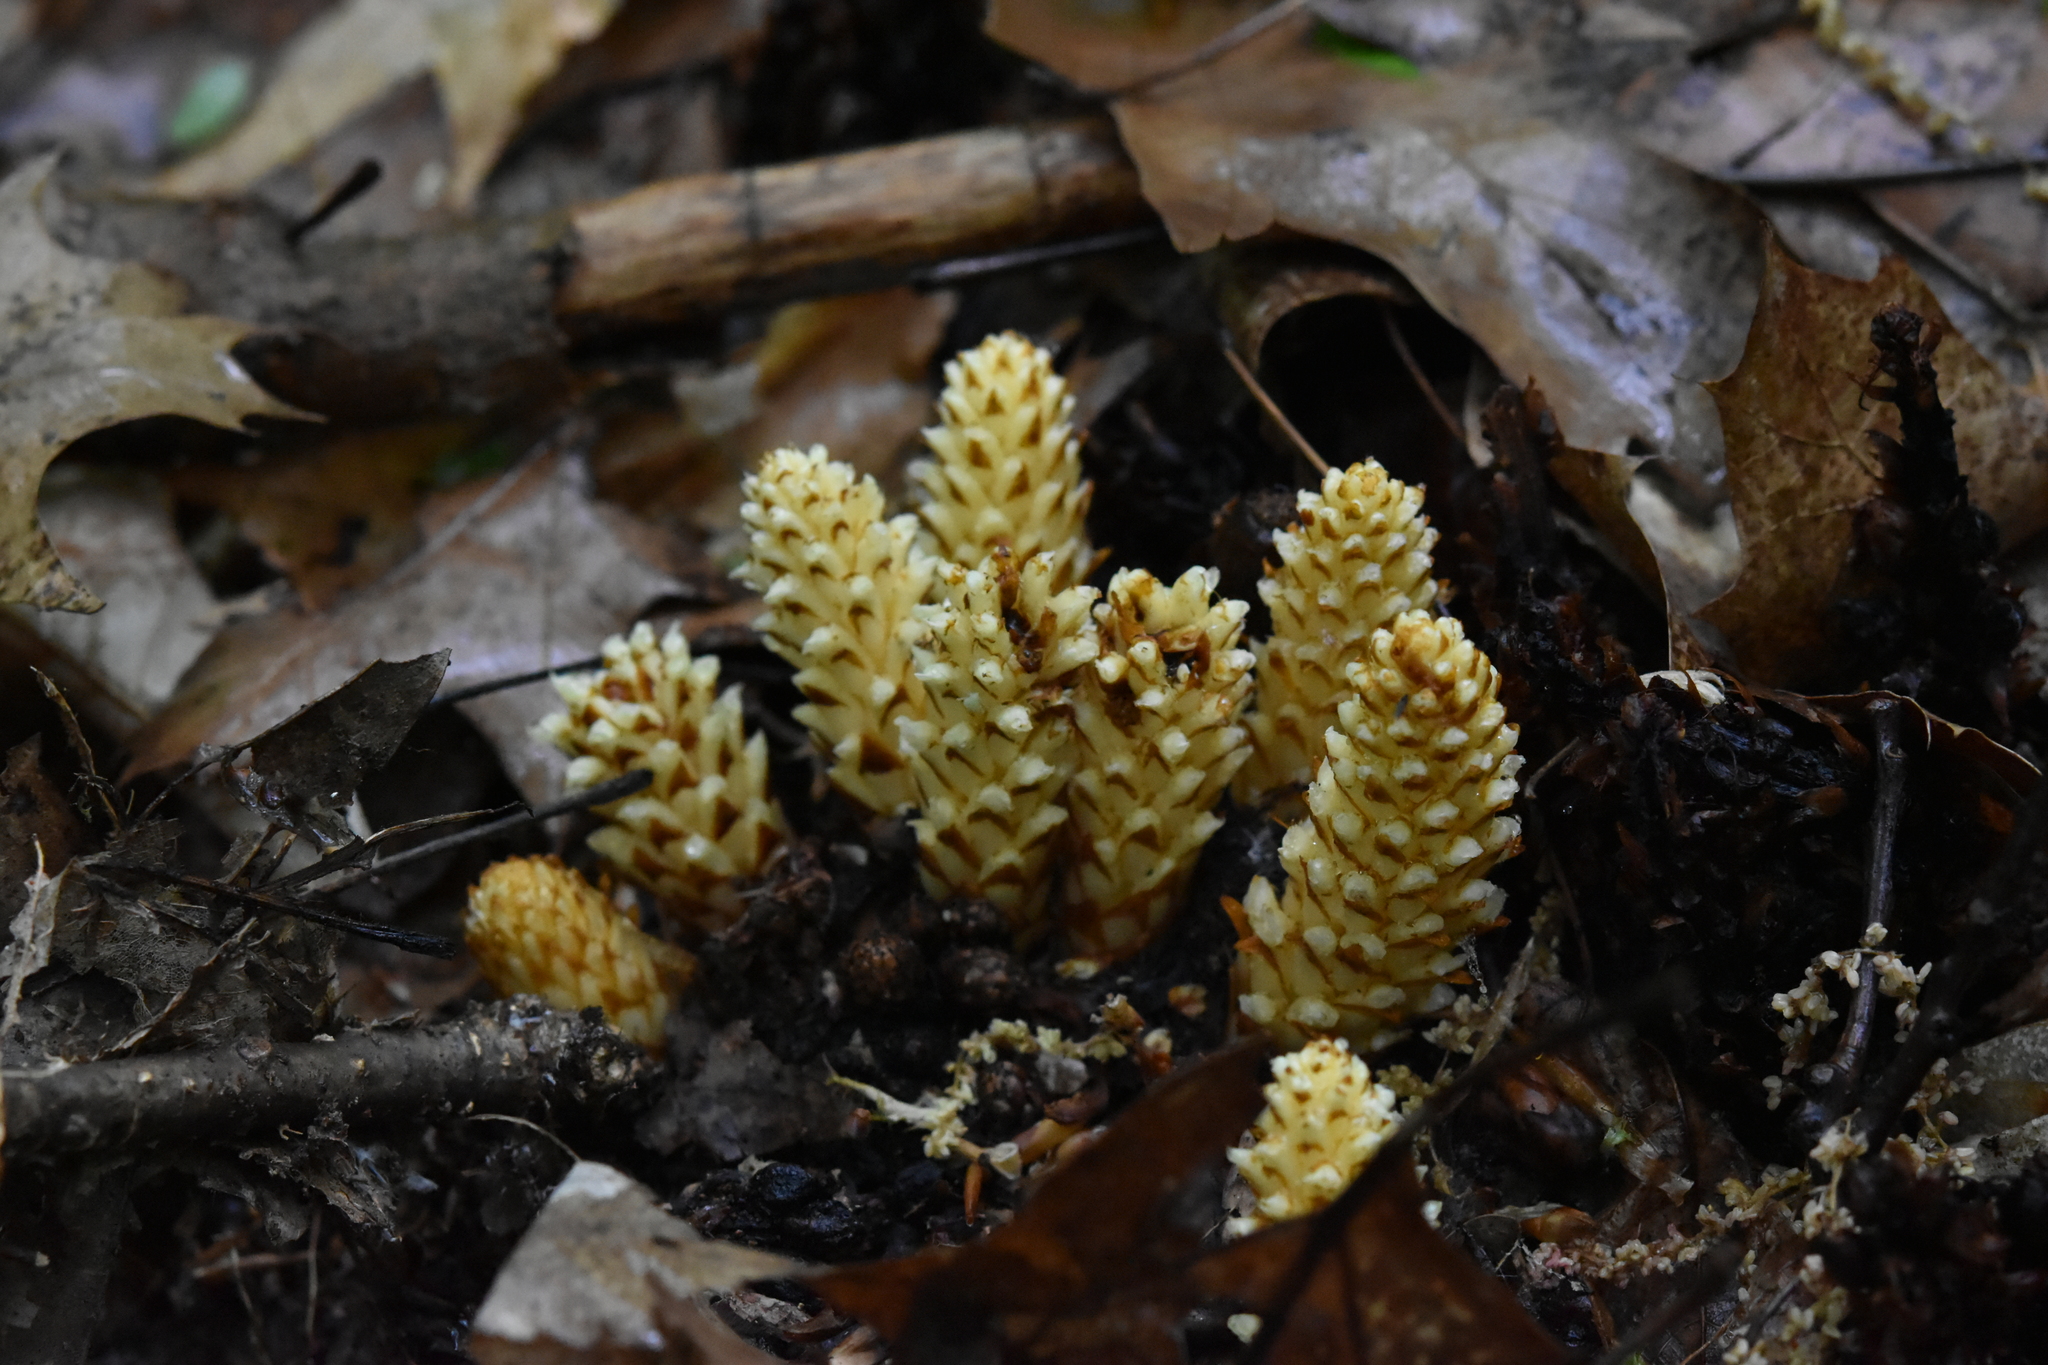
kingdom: Plantae
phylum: Tracheophyta
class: Magnoliopsida
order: Lamiales
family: Orobanchaceae
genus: Conopholis
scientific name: Conopholis americana
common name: American cancer-root
